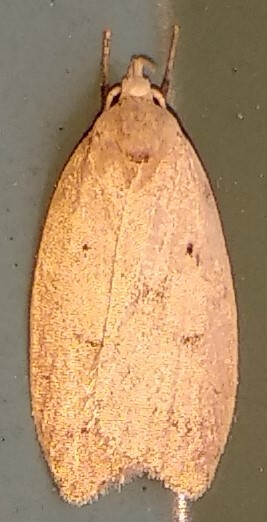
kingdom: Animalia
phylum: Arthropoda
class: Insecta
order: Lepidoptera
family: Peleopodidae
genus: Machimia
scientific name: Machimia tentoriferella
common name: Gold-striped leaftier moth
